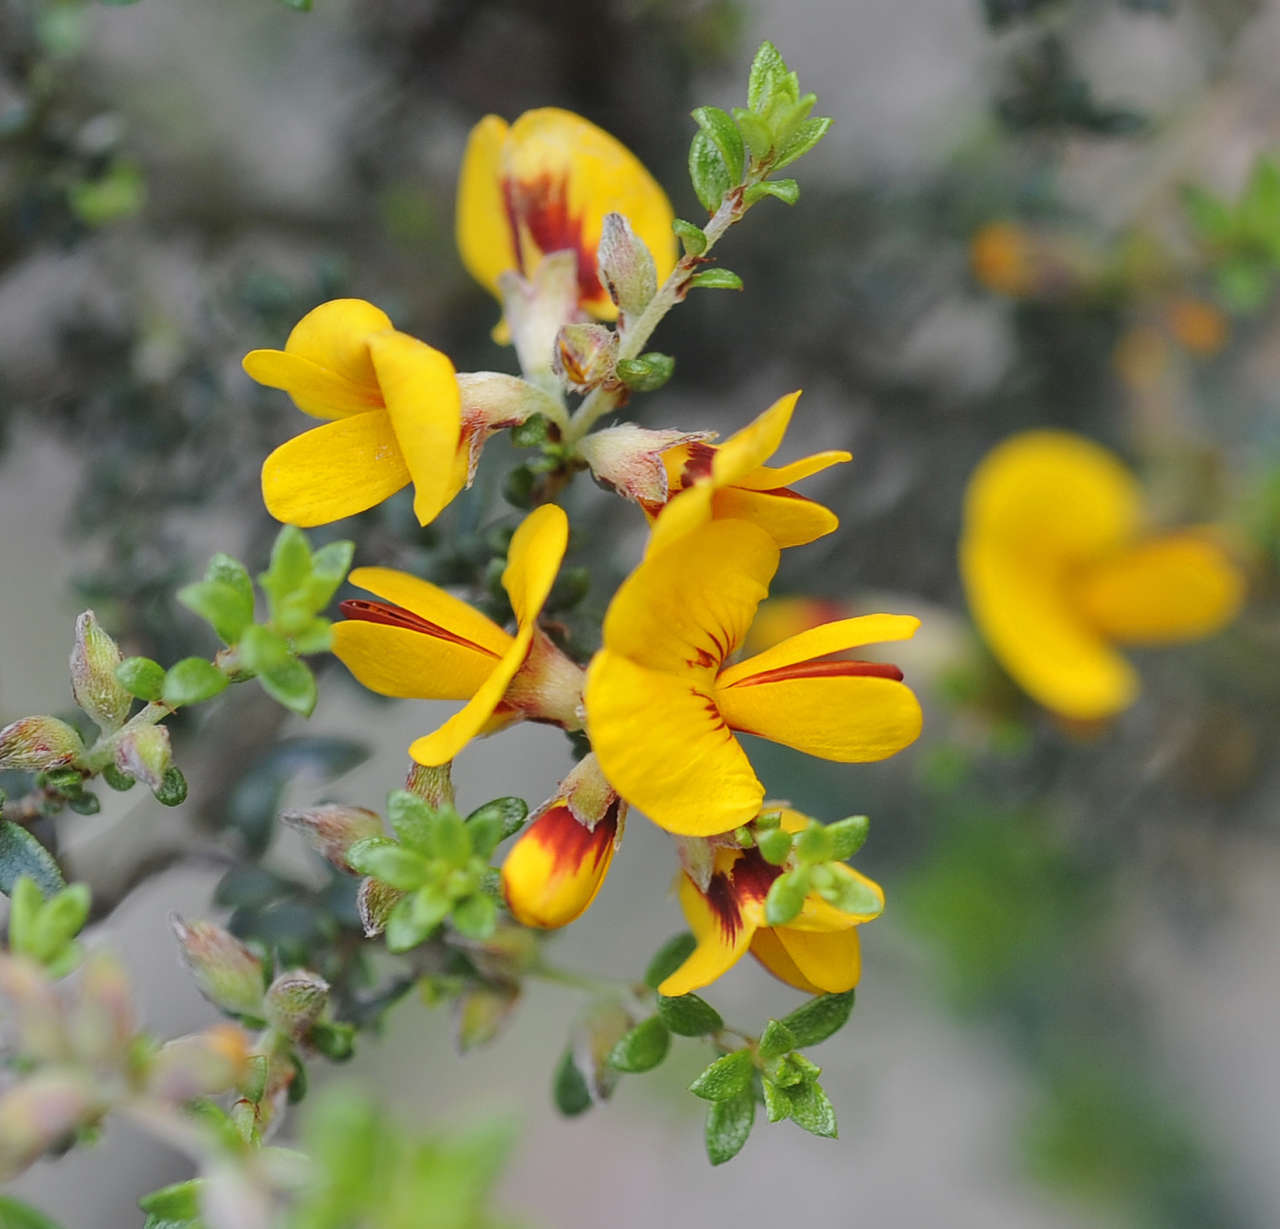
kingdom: Plantae
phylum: Tracheophyta
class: Magnoliopsida
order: Fabales
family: Fabaceae
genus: Pultenaea
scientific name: Pultenaea gunnii
